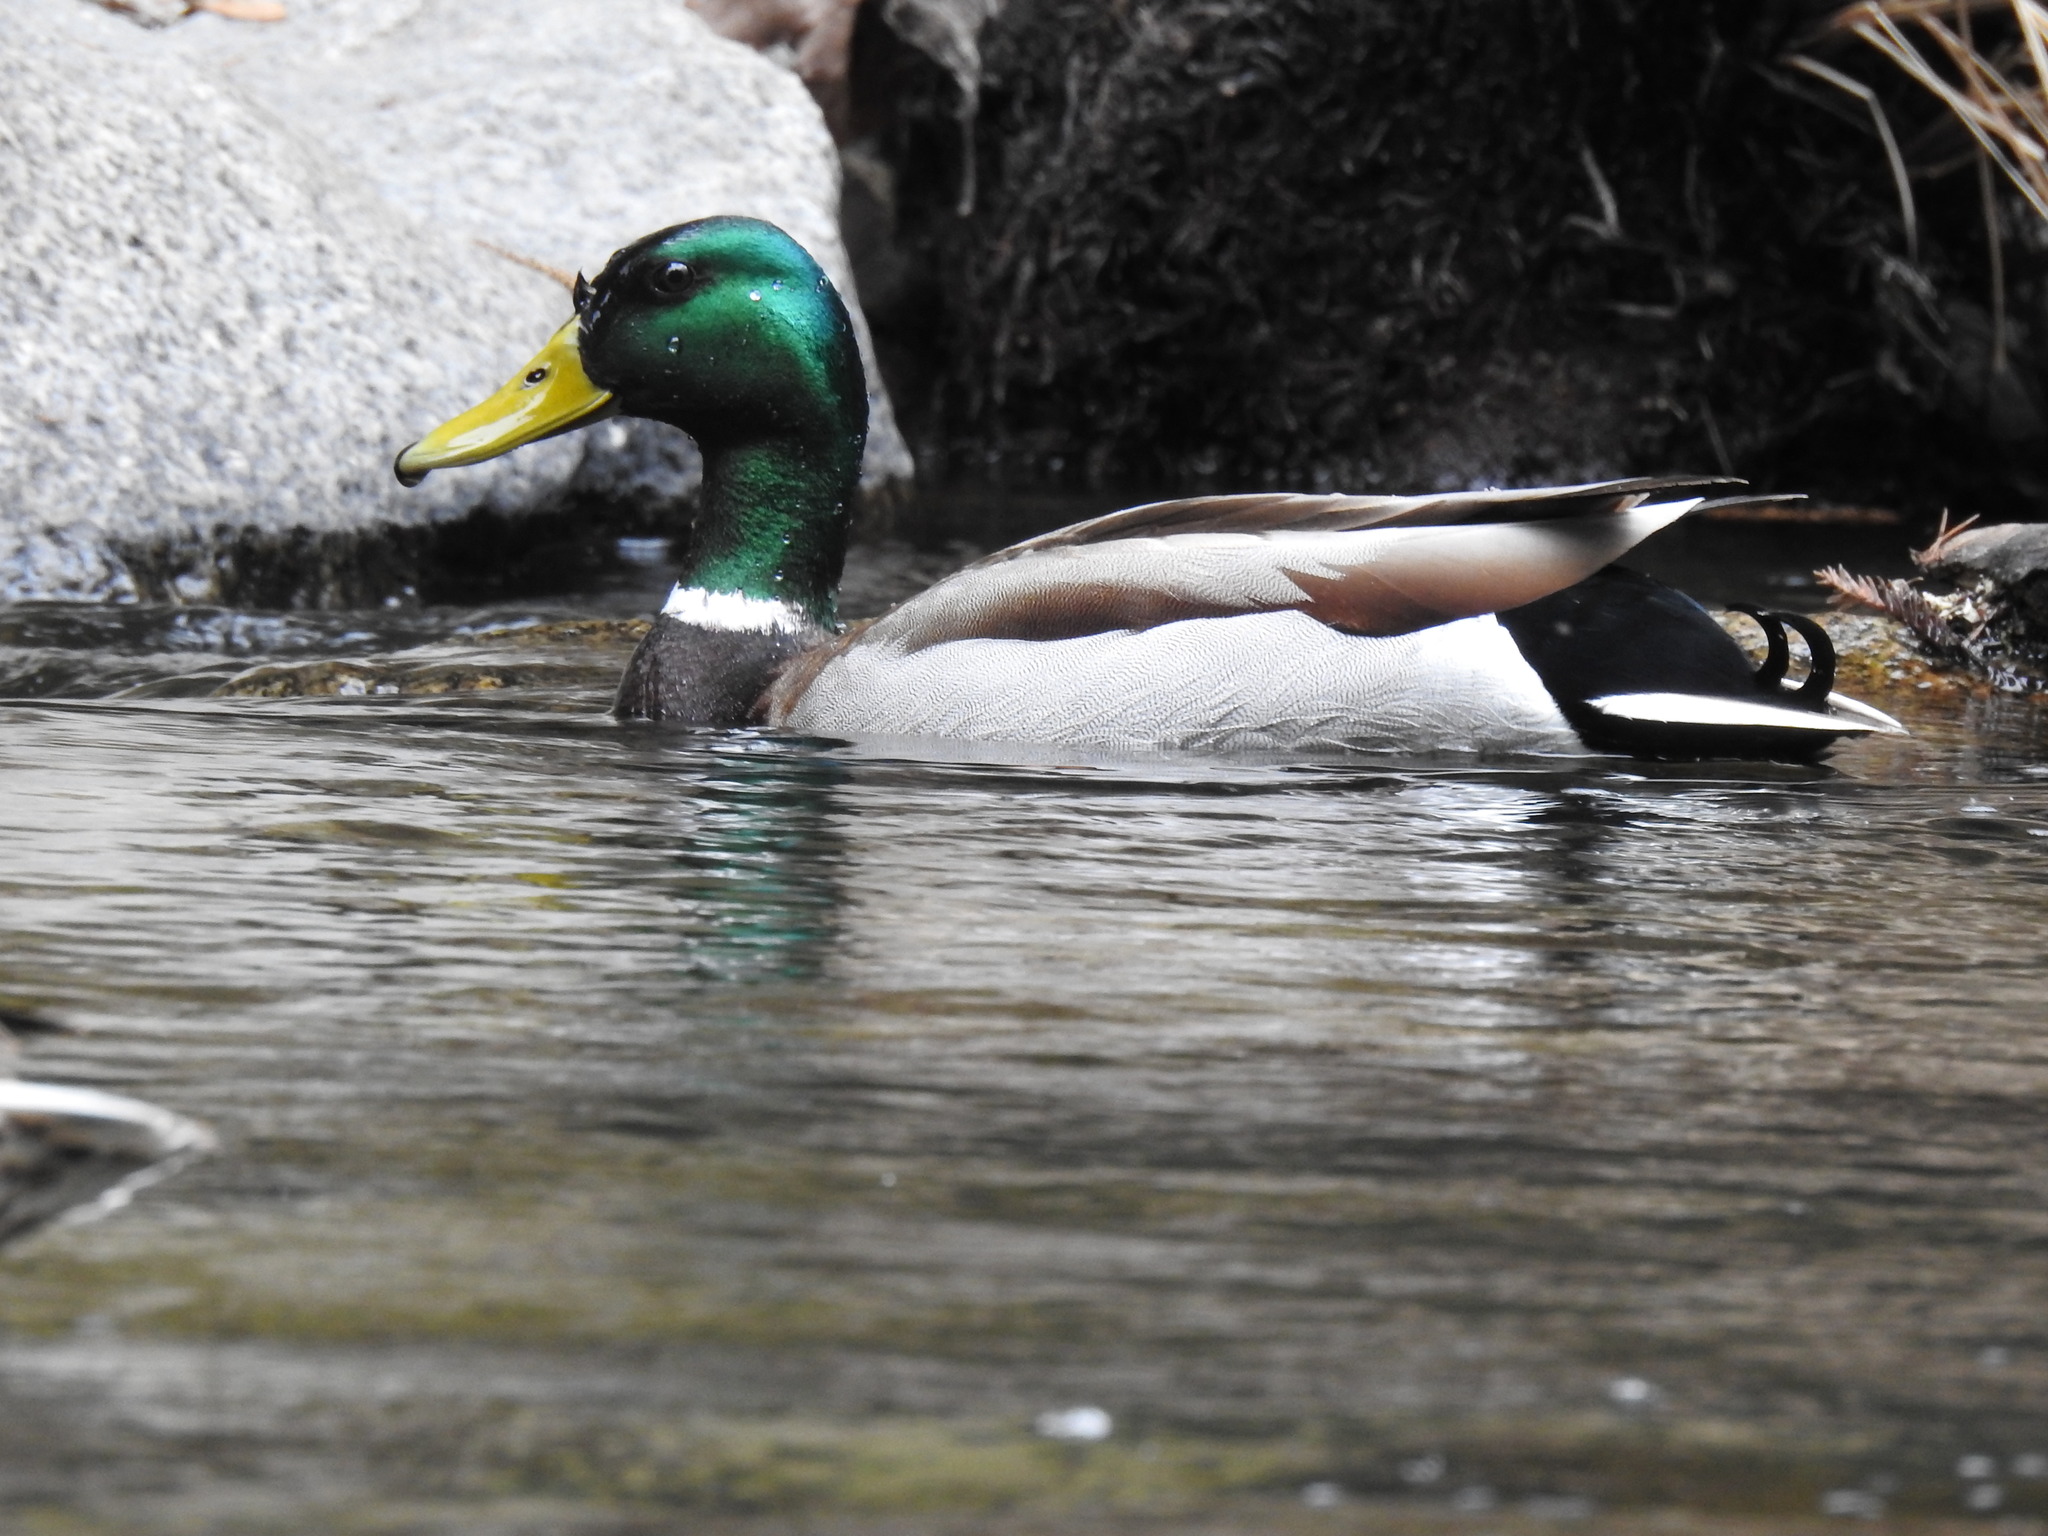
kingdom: Animalia
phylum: Chordata
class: Aves
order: Anseriformes
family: Anatidae
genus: Anas
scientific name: Anas platyrhynchos
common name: Mallard
